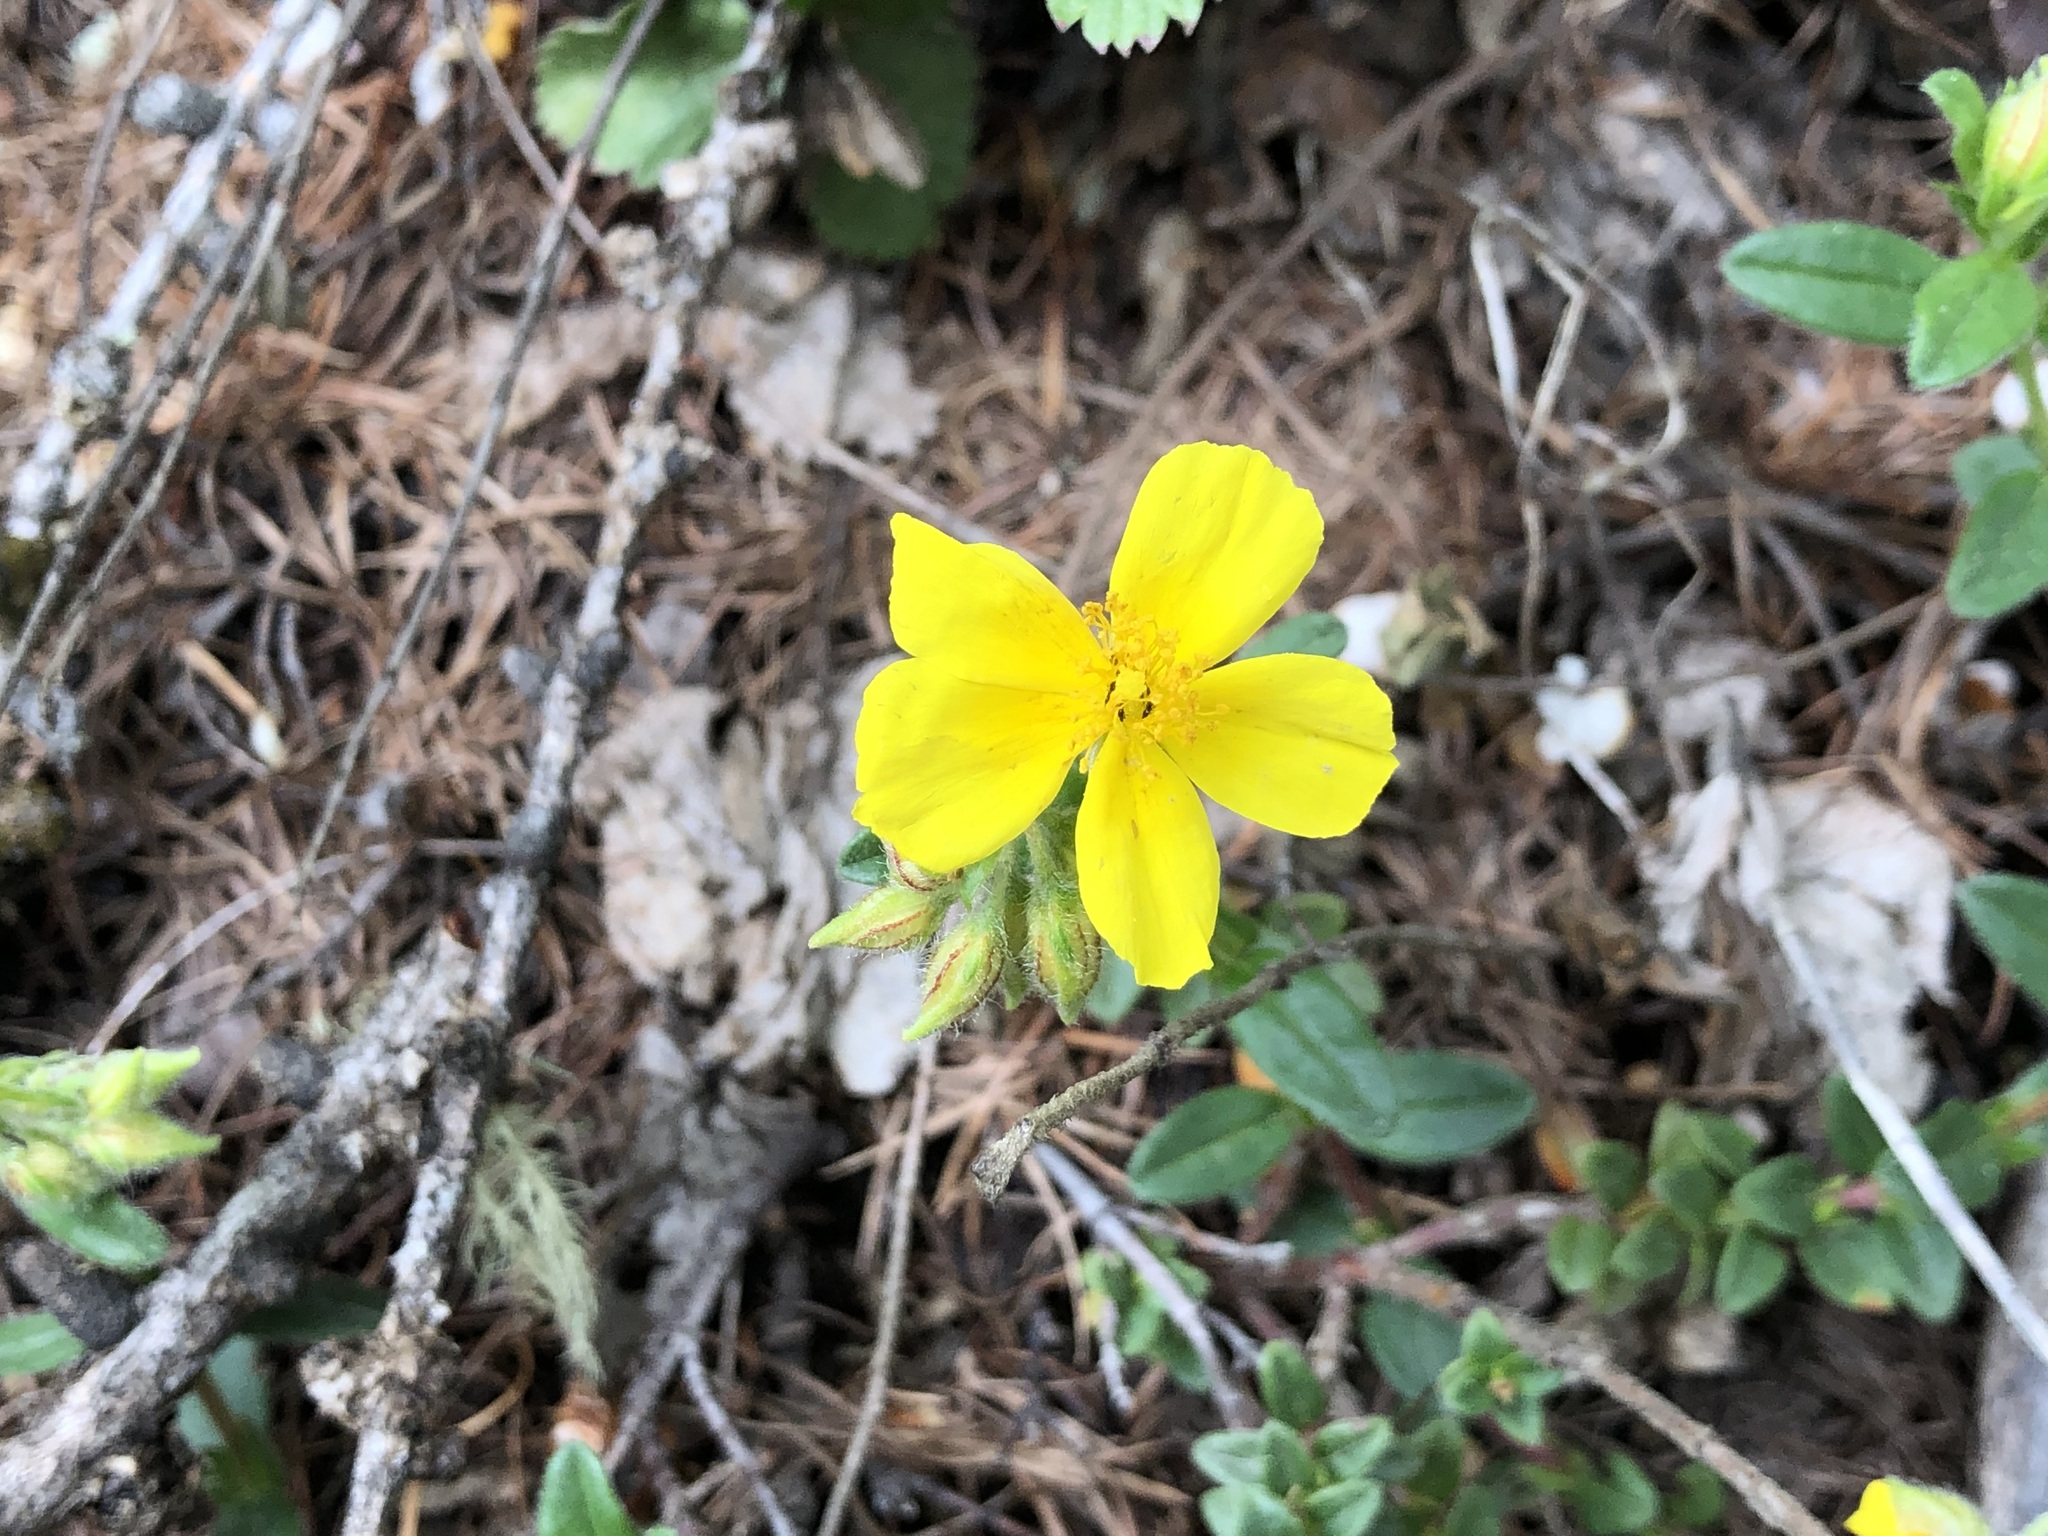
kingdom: Plantae
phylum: Tracheophyta
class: Magnoliopsida
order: Malvales
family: Cistaceae
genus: Helianthemum
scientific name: Helianthemum nummularium
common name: Common rock-rose
